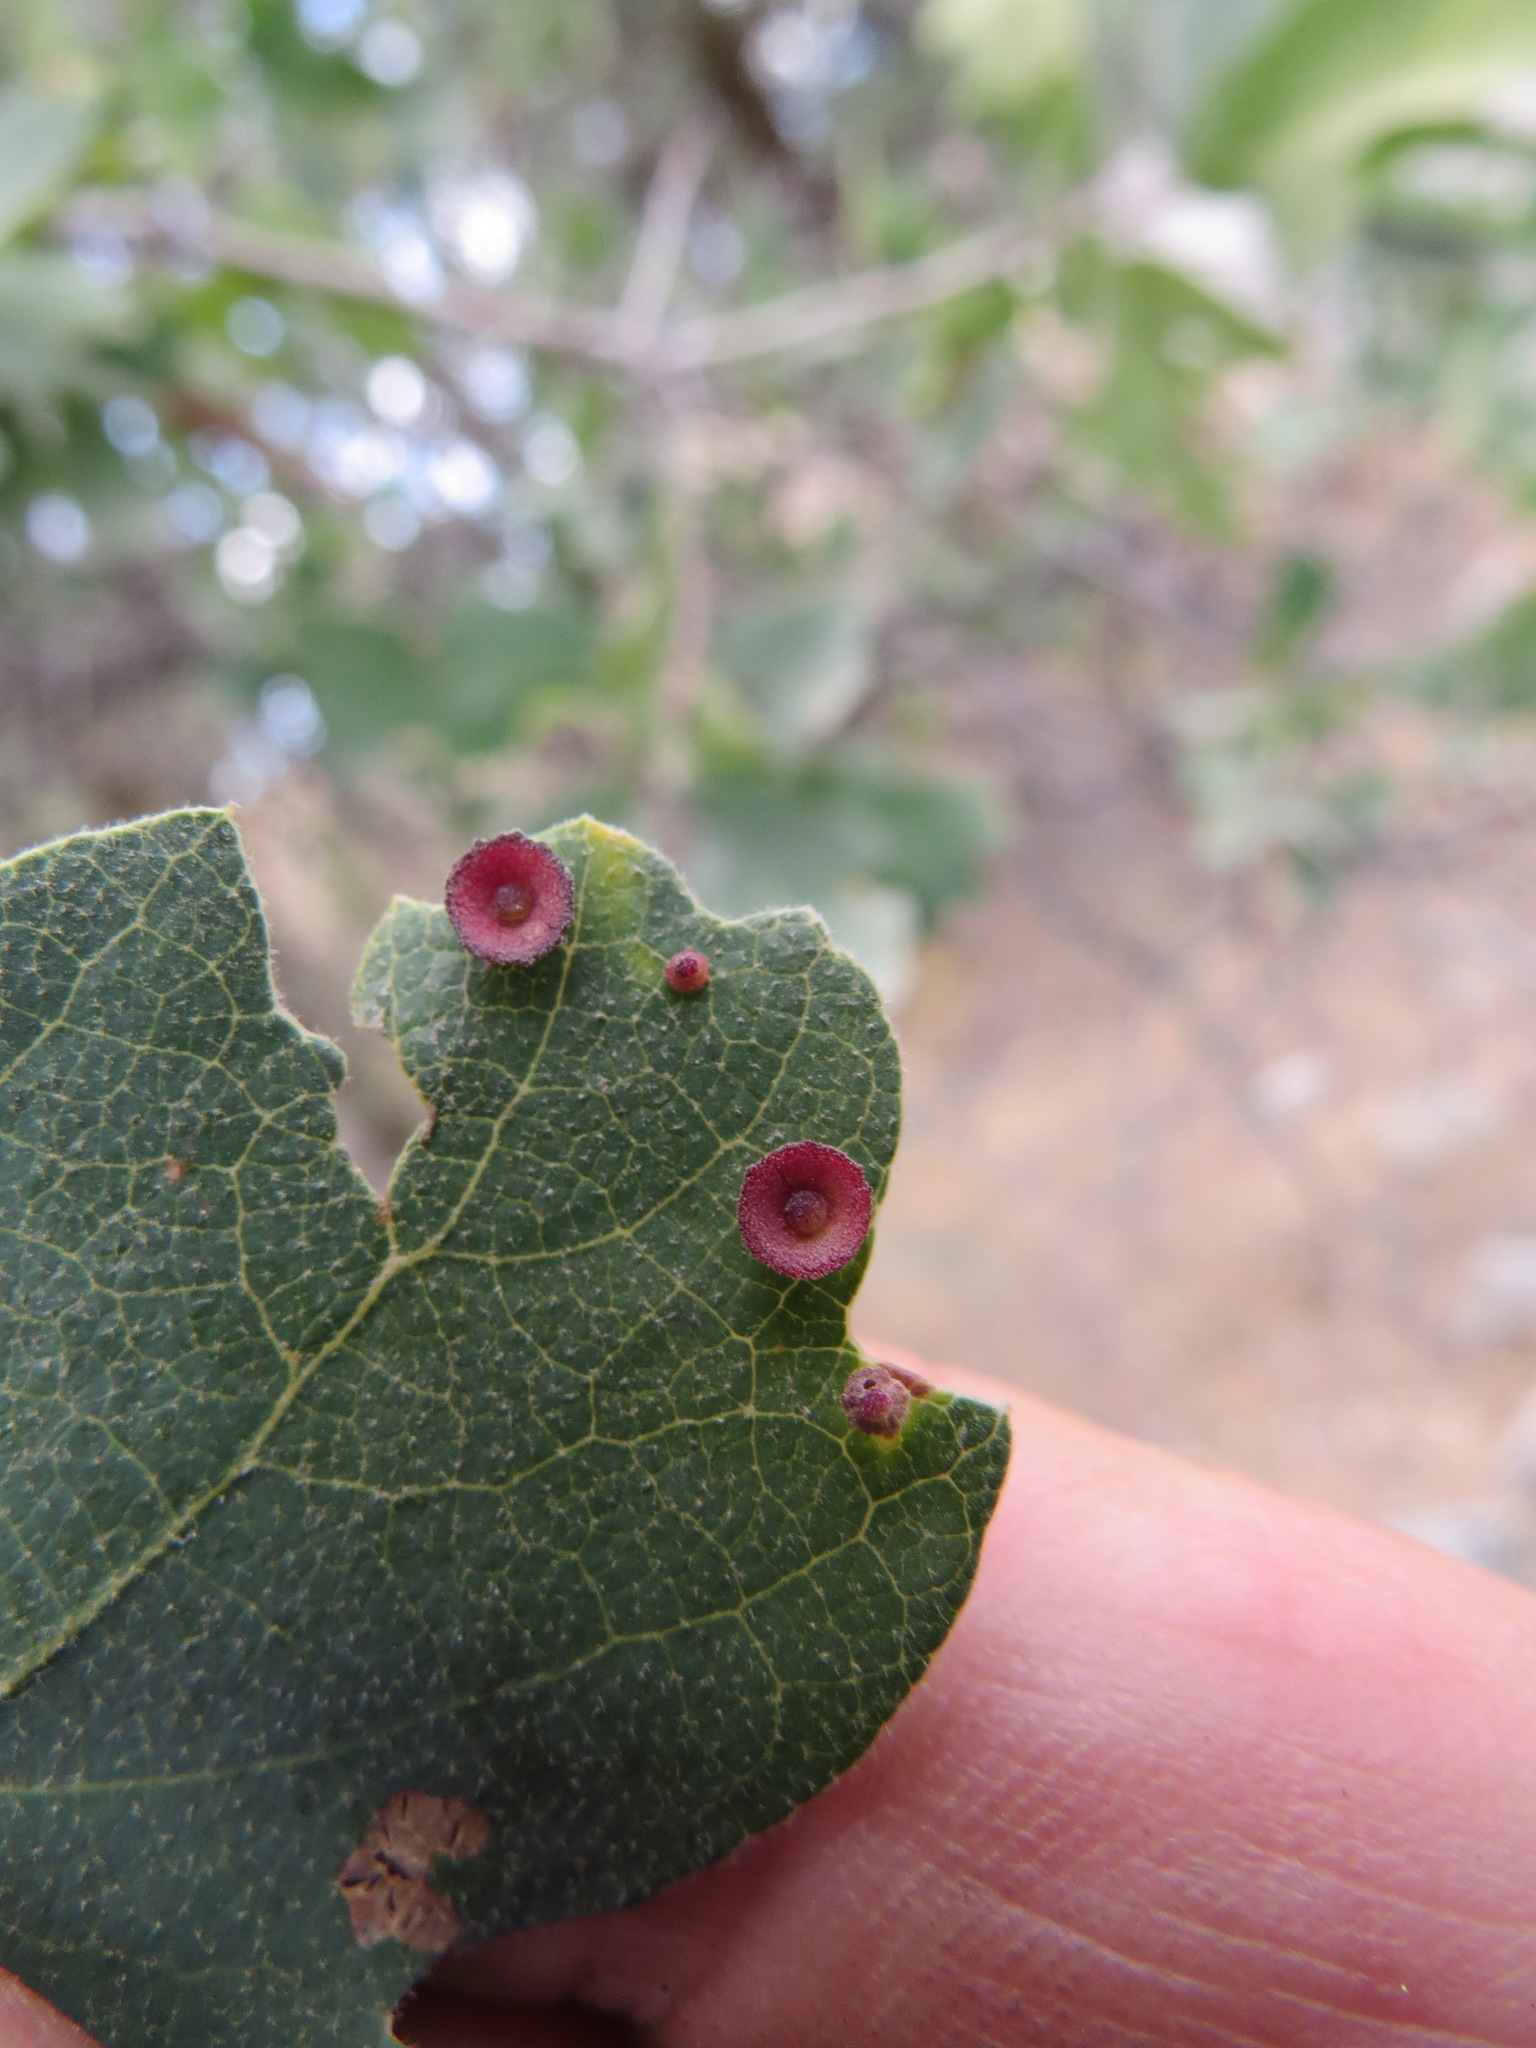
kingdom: Animalia
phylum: Arthropoda
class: Insecta
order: Hymenoptera
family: Cynipidae
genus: Andricus
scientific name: Andricus
